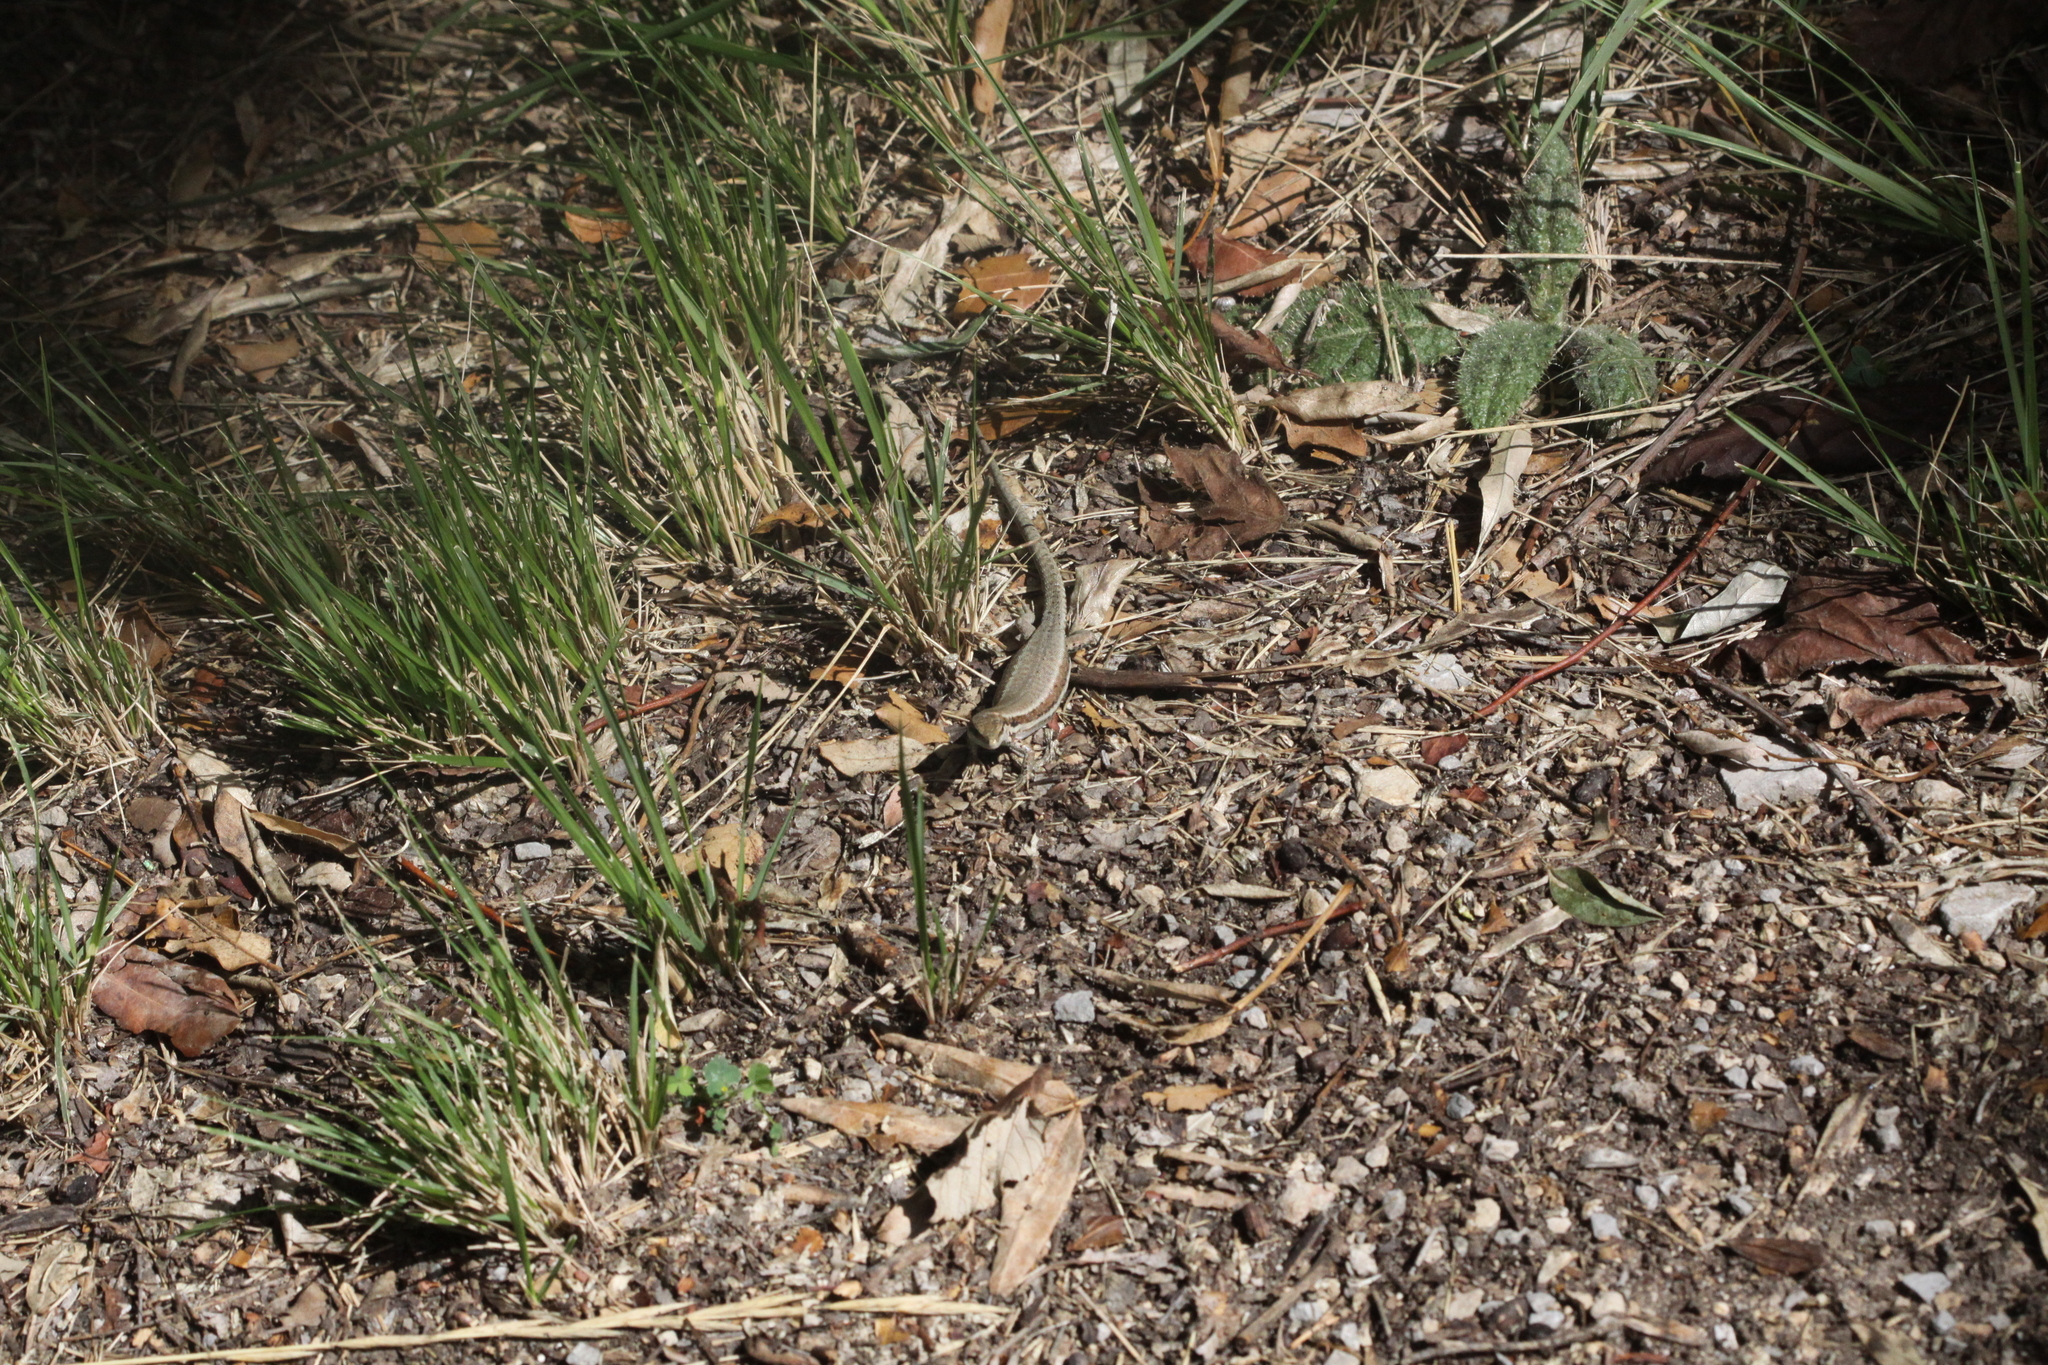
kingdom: Animalia
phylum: Chordata
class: Squamata
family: Lacertidae
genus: Podarcis
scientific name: Podarcis muralis
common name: Common wall lizard
